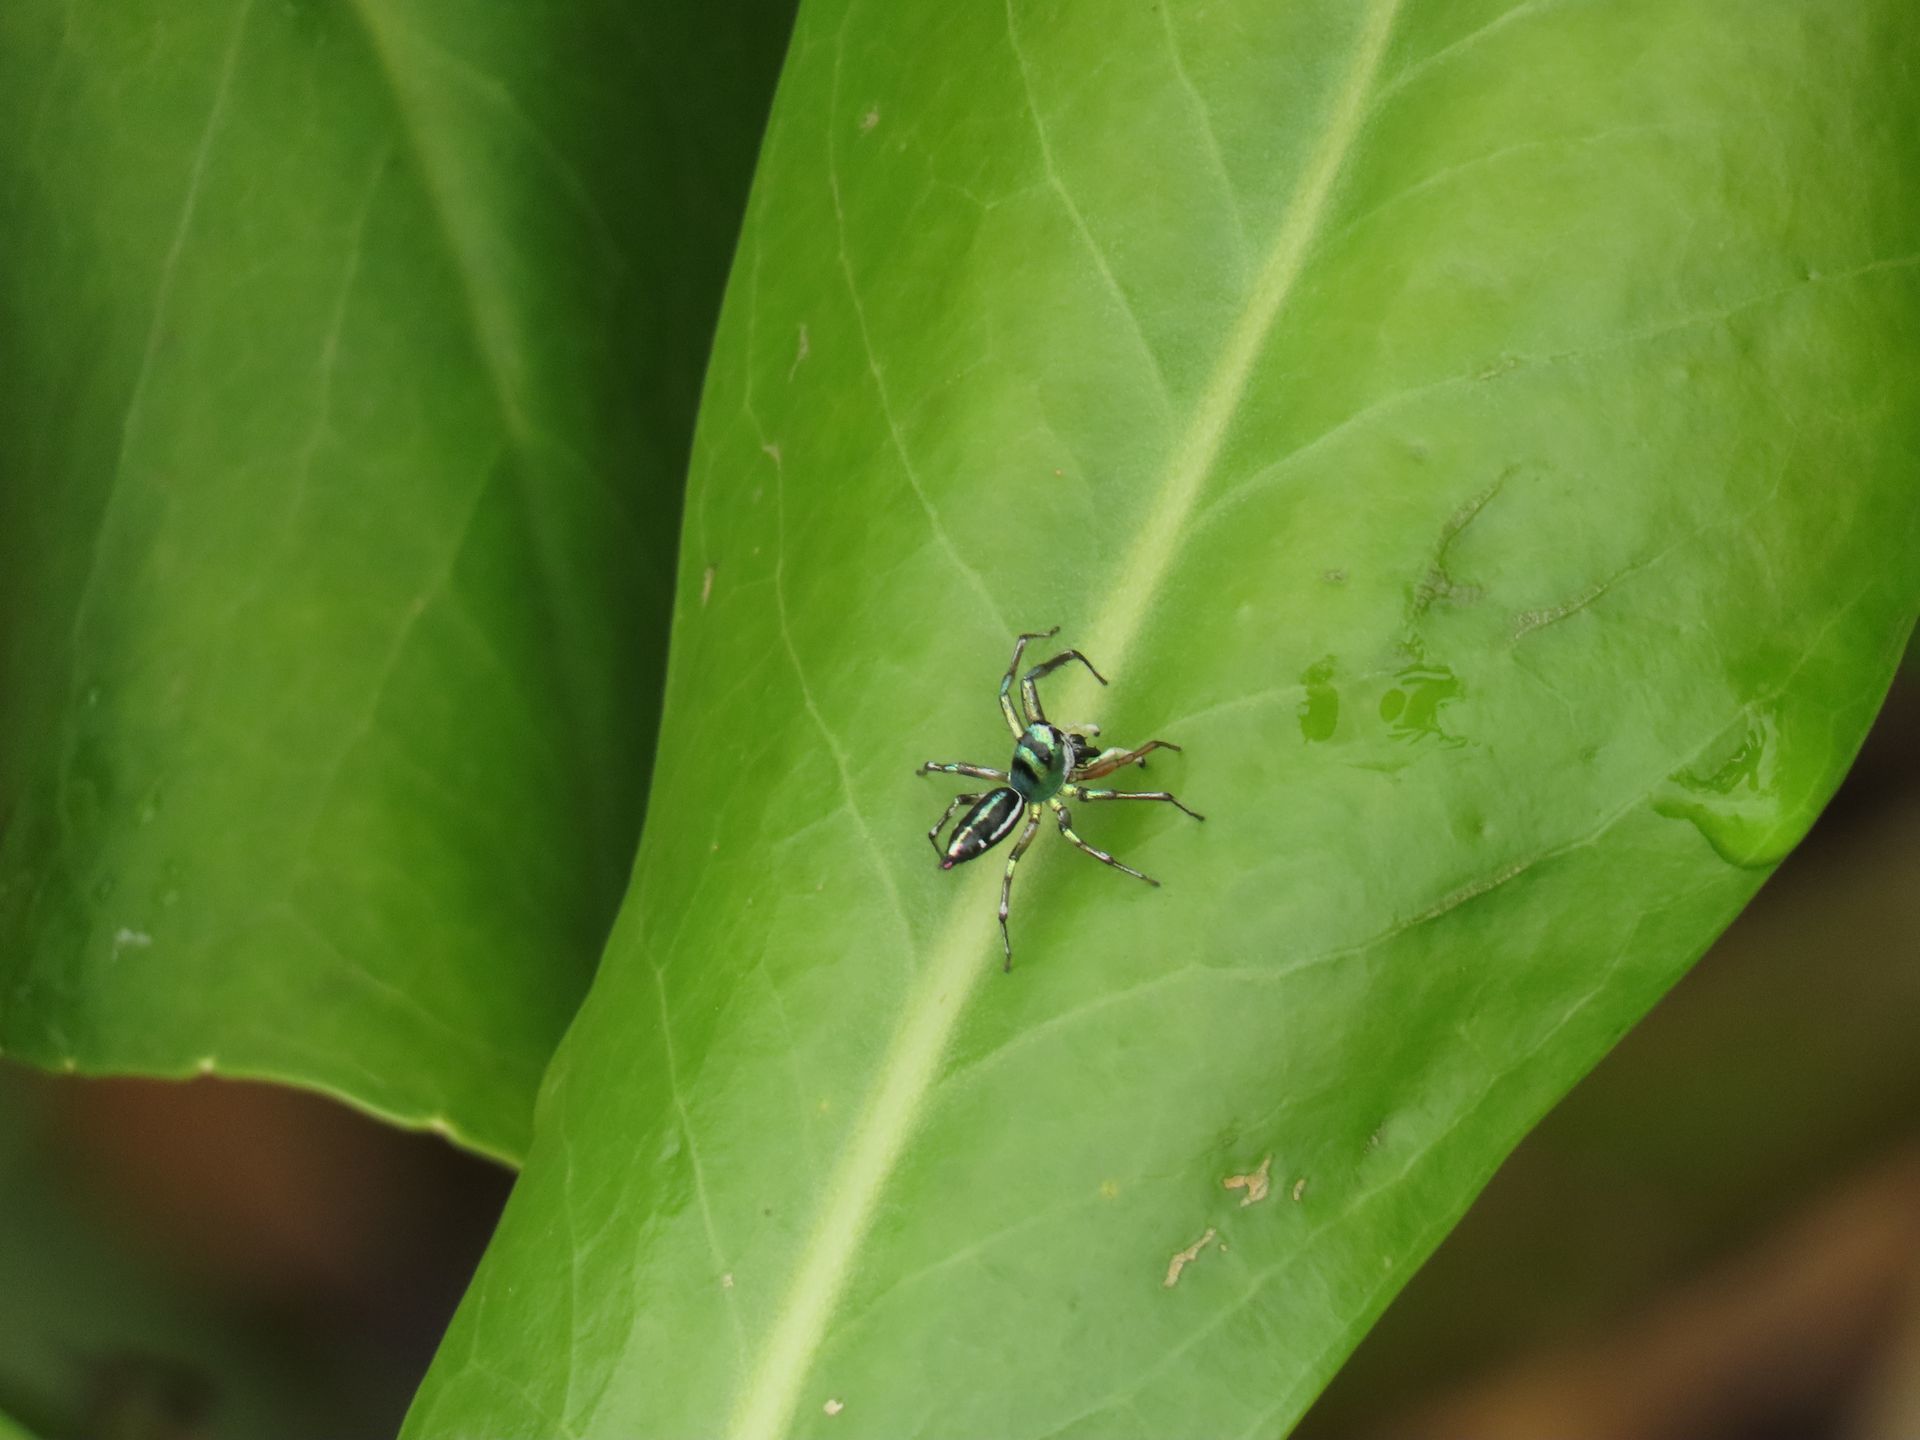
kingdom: Animalia
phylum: Arthropoda
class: Arachnida
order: Araneae
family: Salticidae
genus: Cosmophasis
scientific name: Cosmophasis thalassina
